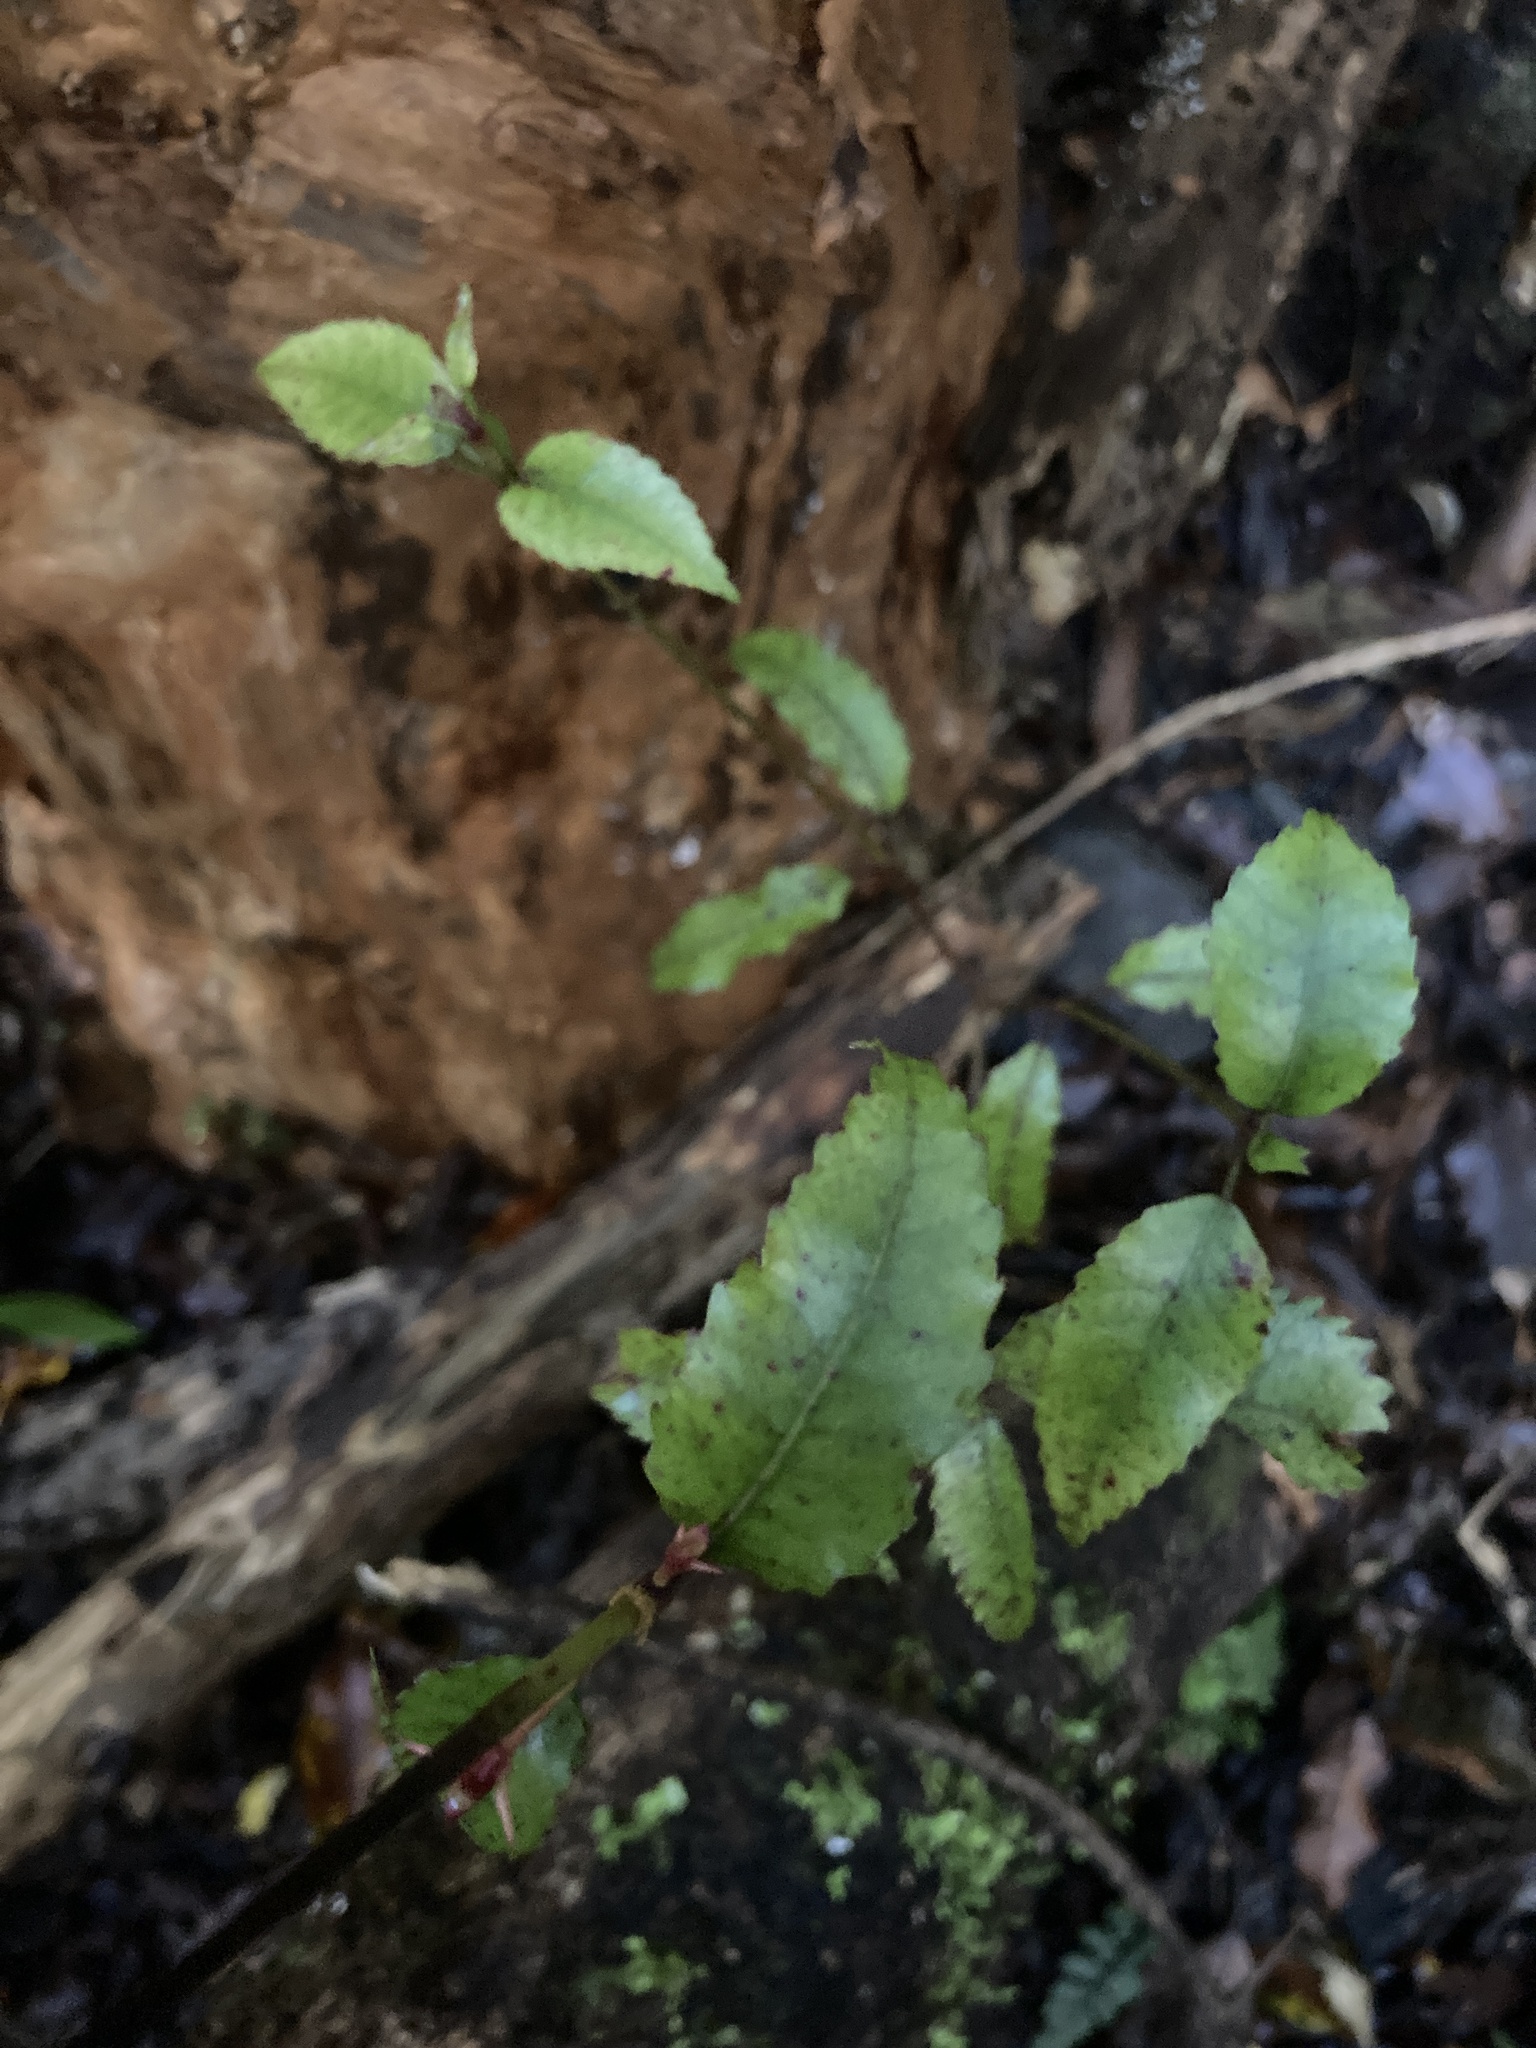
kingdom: Plantae
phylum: Tracheophyta
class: Magnoliopsida
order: Oxalidales
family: Cunoniaceae
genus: Pterophylla
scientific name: Pterophylla racemosa
